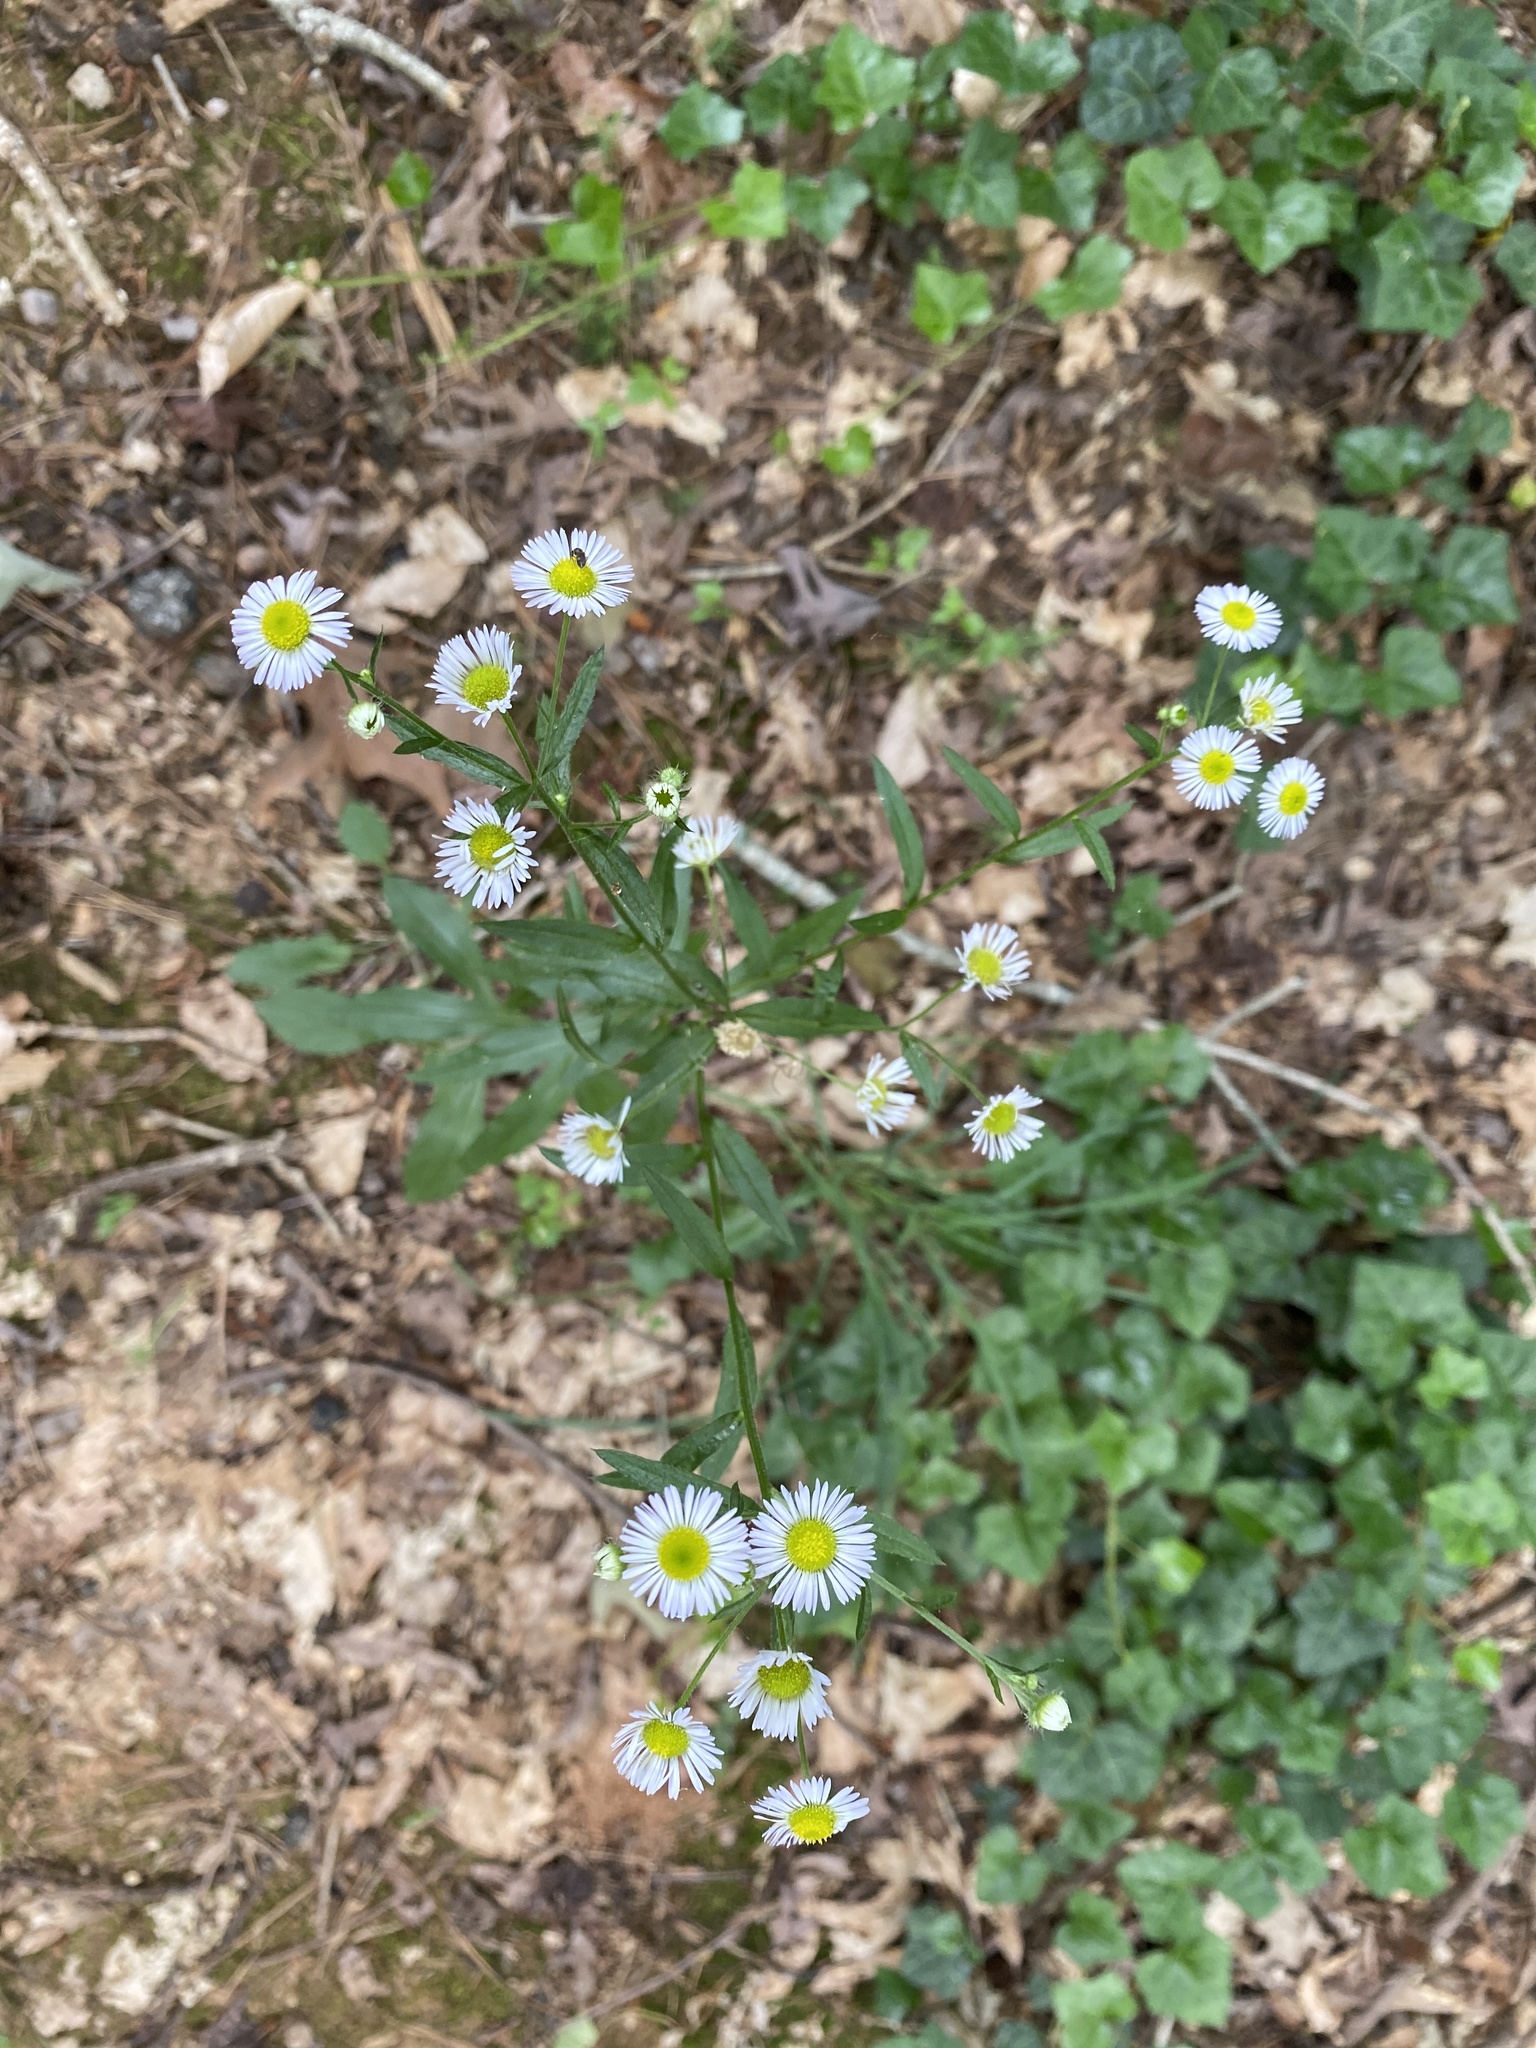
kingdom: Plantae
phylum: Tracheophyta
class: Magnoliopsida
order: Asterales
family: Asteraceae
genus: Erigeron
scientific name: Erigeron annuus
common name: Tall fleabane
